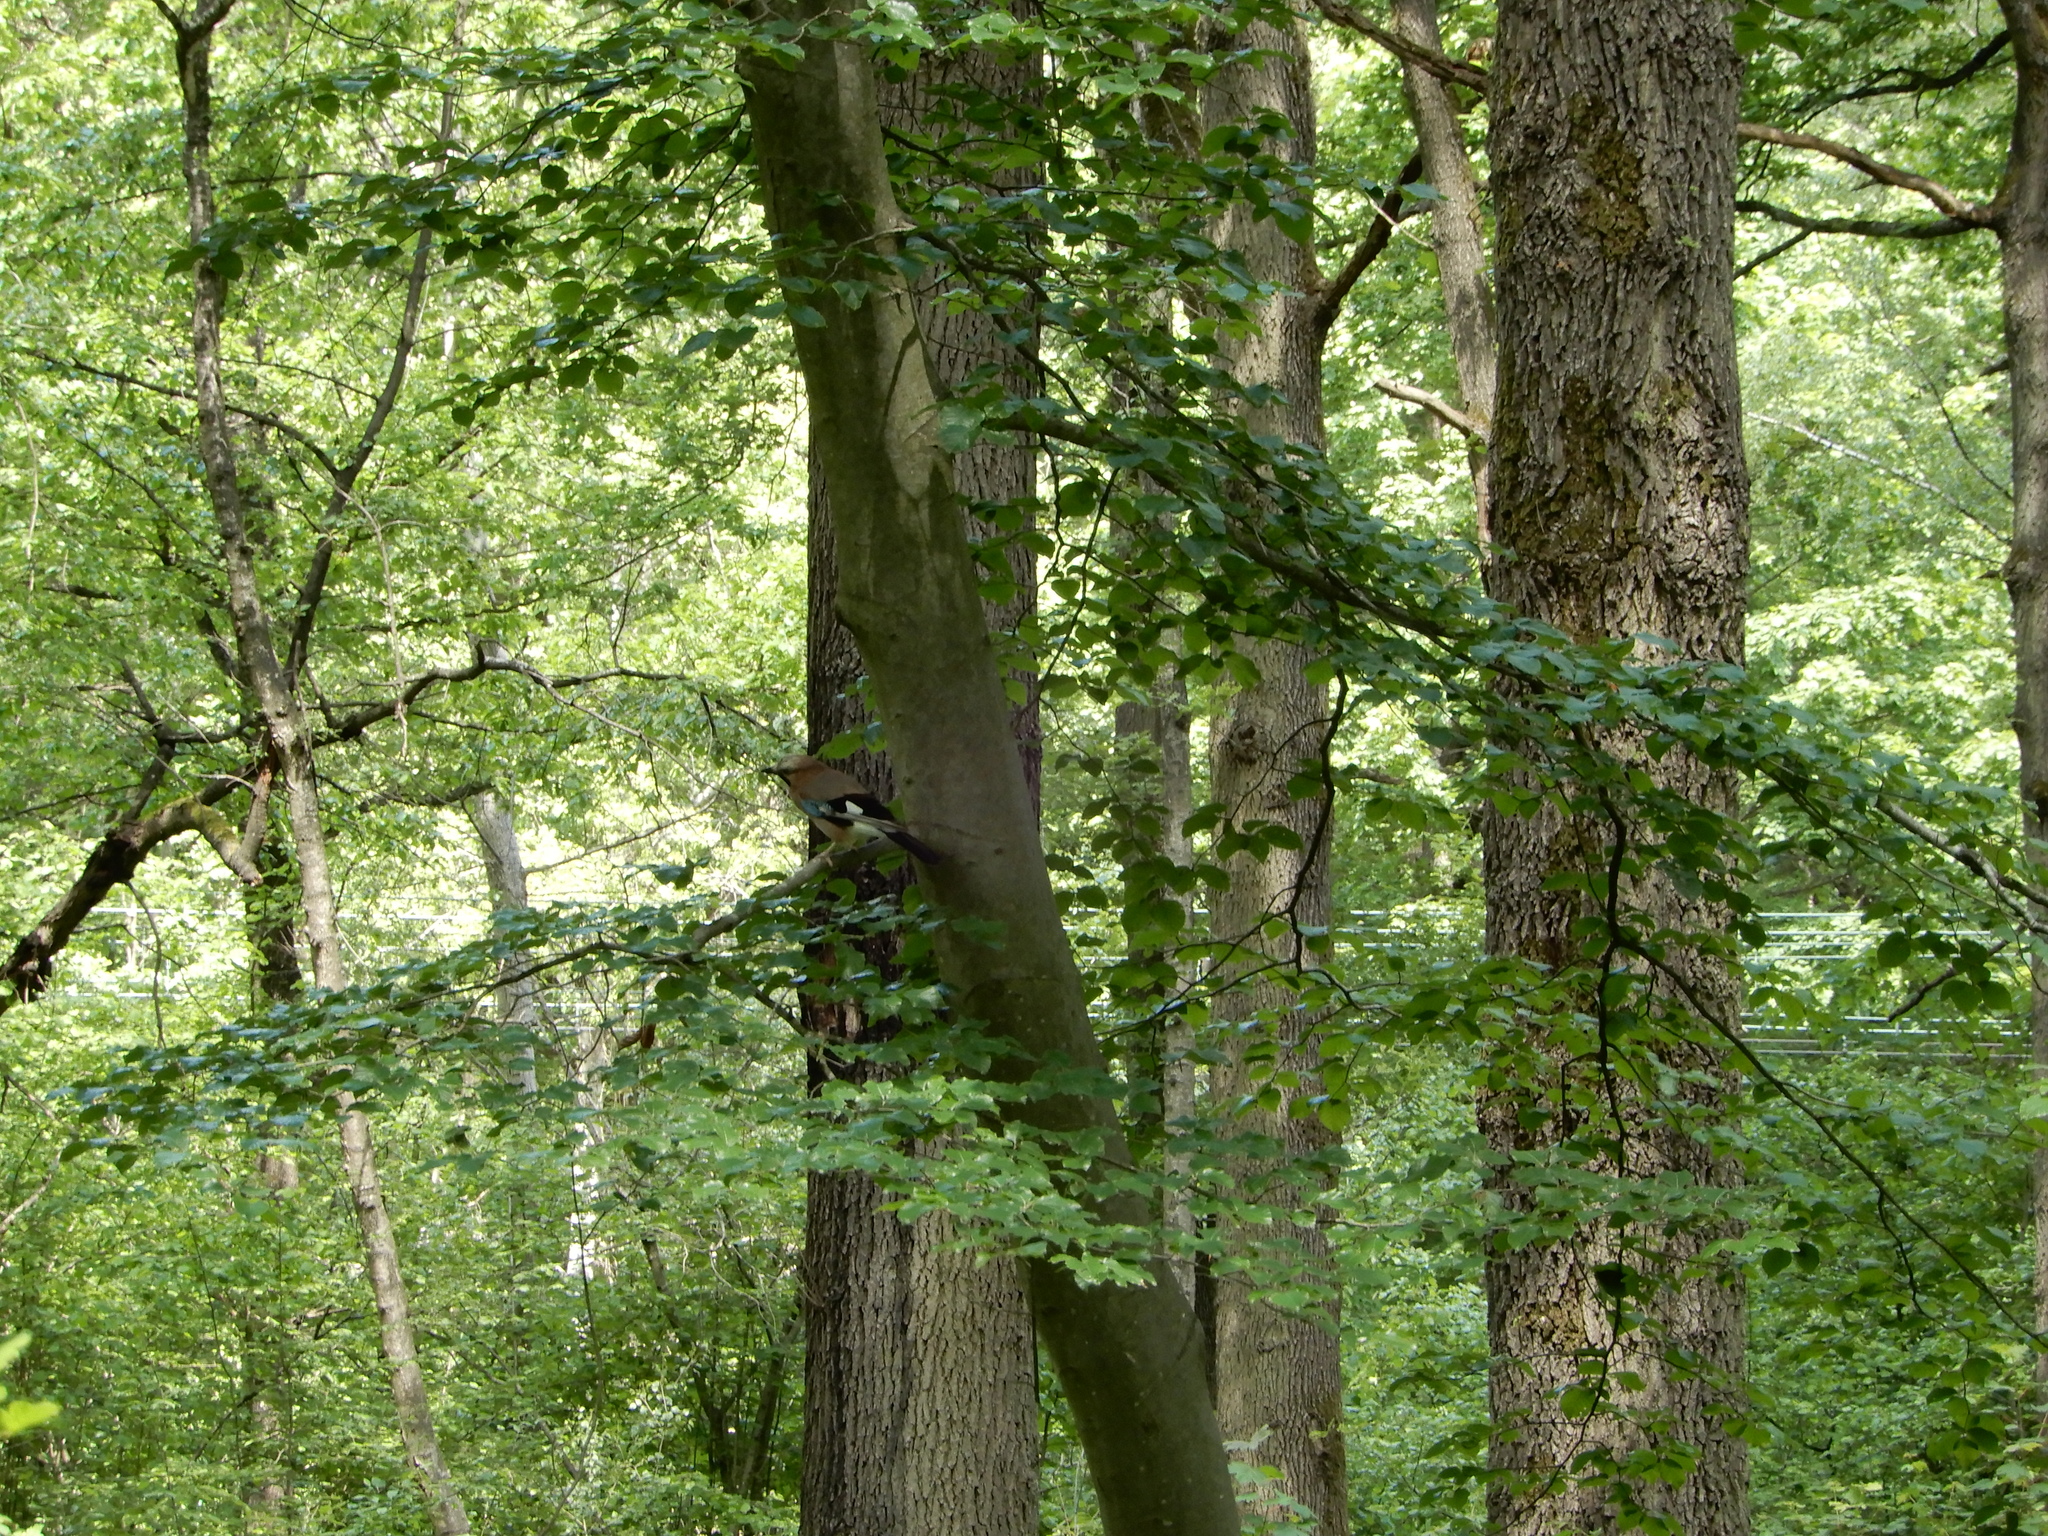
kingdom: Animalia
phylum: Chordata
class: Aves
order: Passeriformes
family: Corvidae
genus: Garrulus
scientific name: Garrulus glandarius
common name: Eurasian jay
